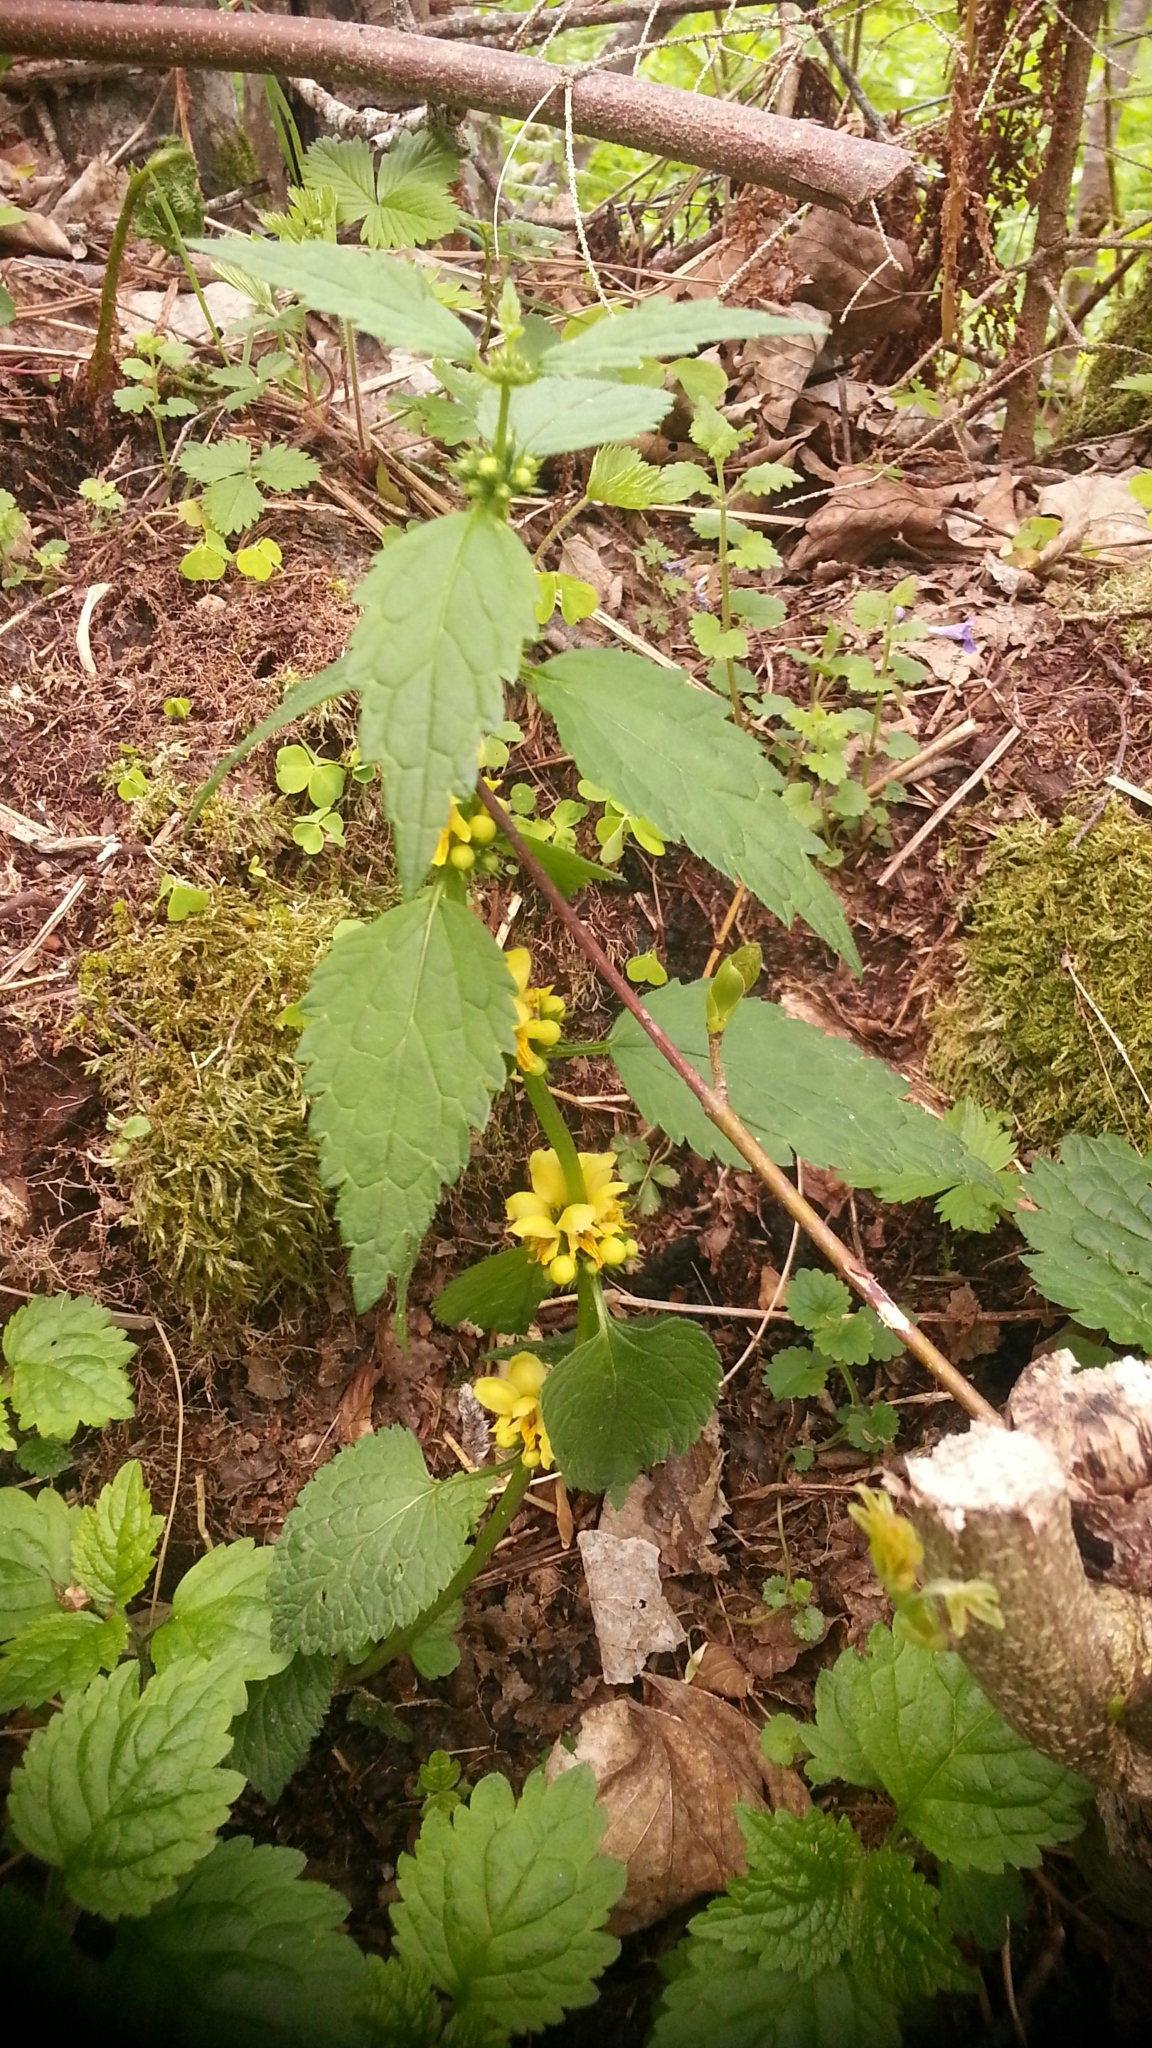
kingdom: Plantae
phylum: Tracheophyta
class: Magnoliopsida
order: Lamiales
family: Lamiaceae
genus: Lamium
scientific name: Lamium galeobdolon
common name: Yellow archangel
